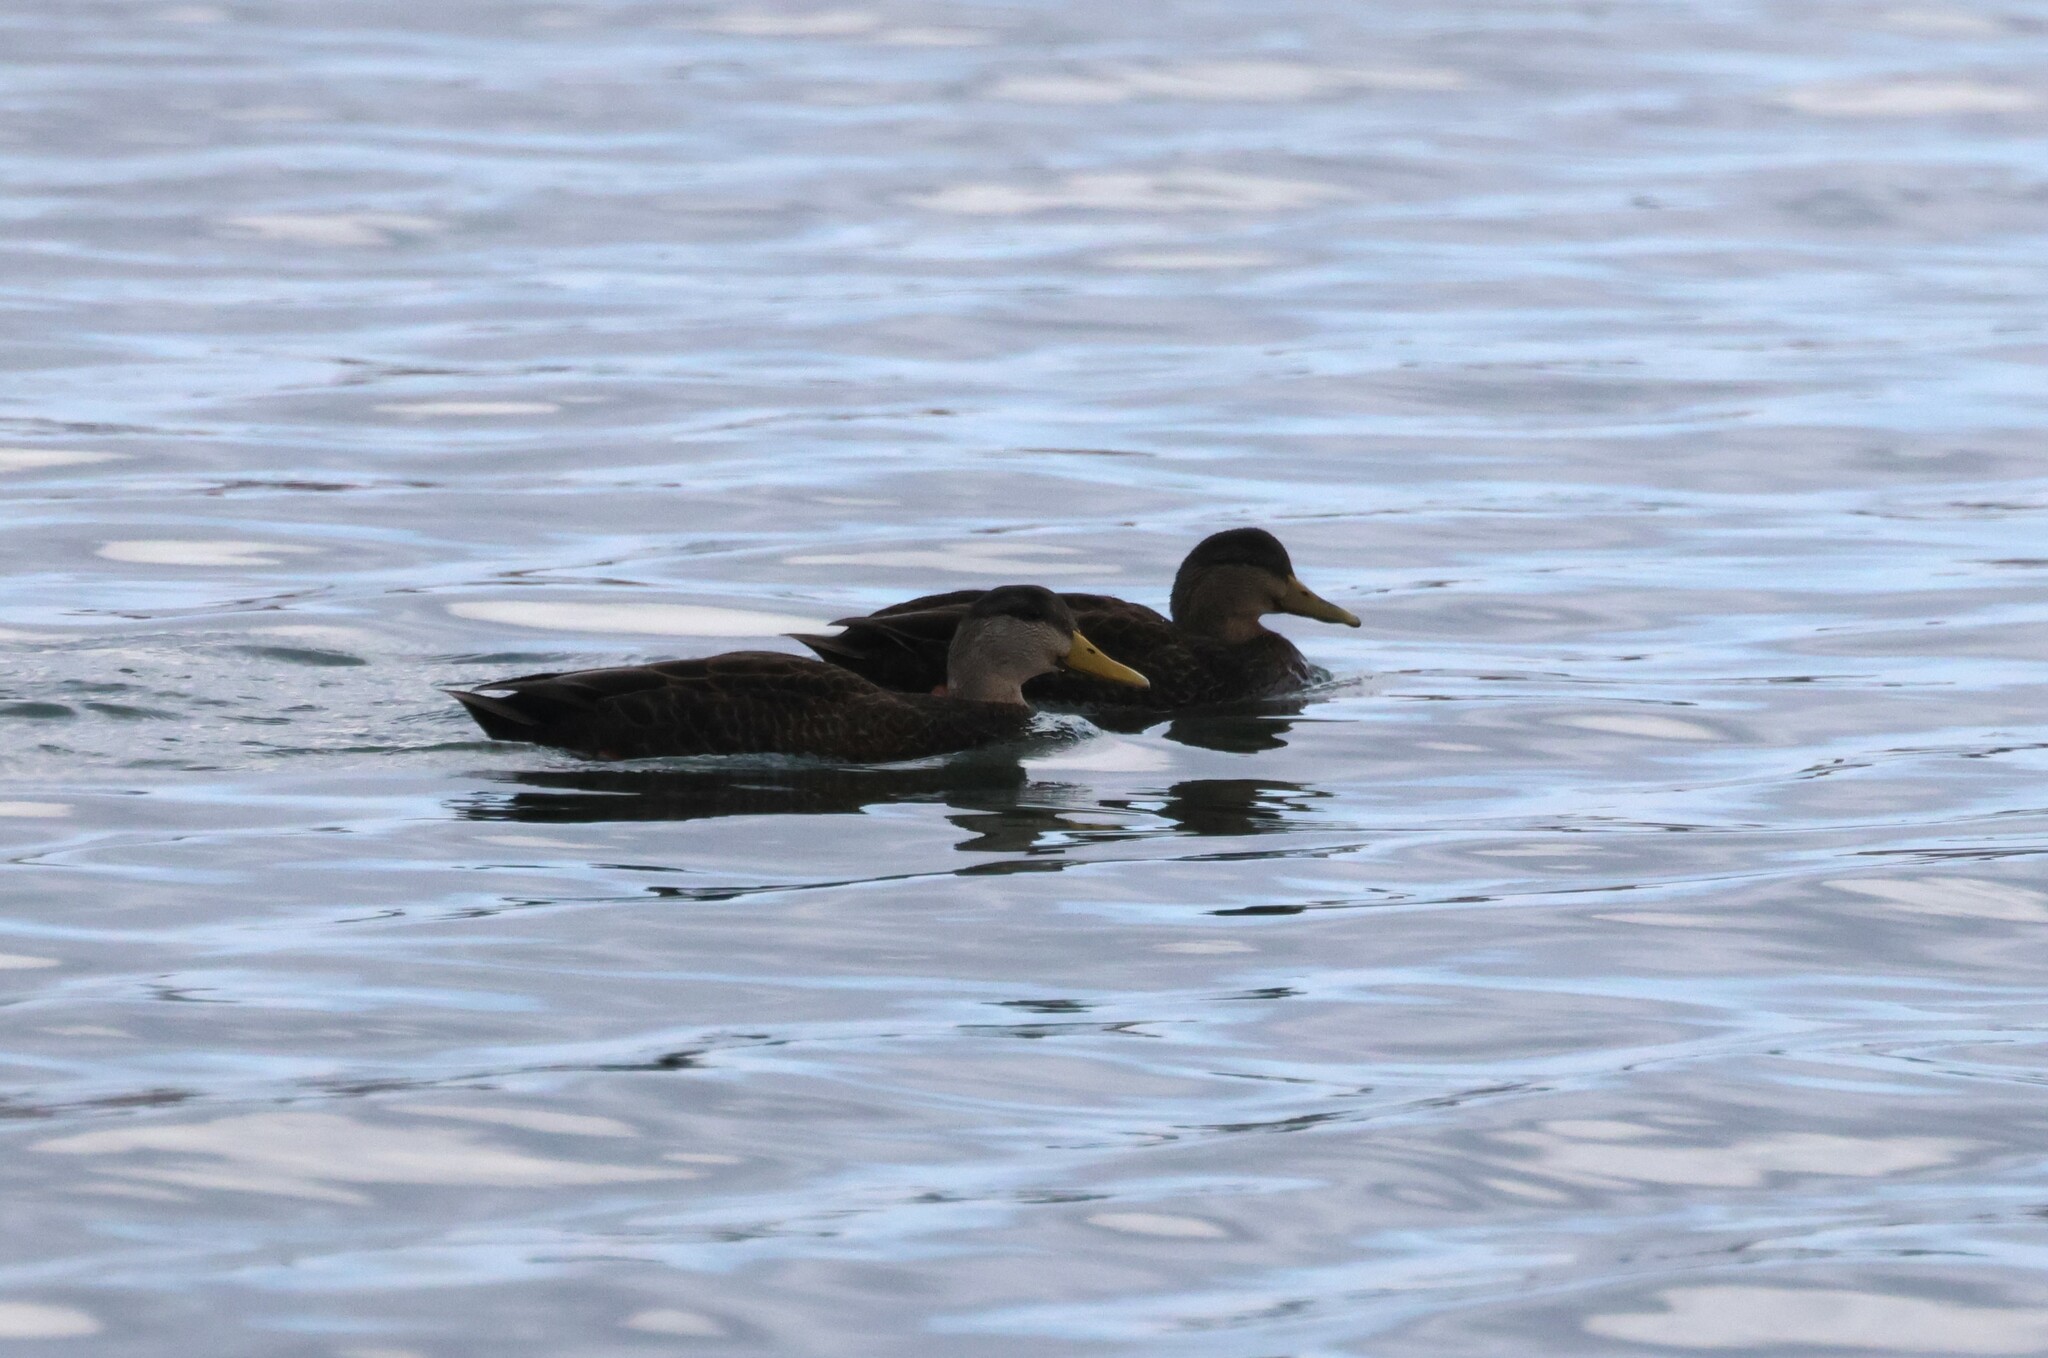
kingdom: Animalia
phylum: Chordata
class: Aves
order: Anseriformes
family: Anatidae
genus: Anas
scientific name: Anas rubripes
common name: American black duck
